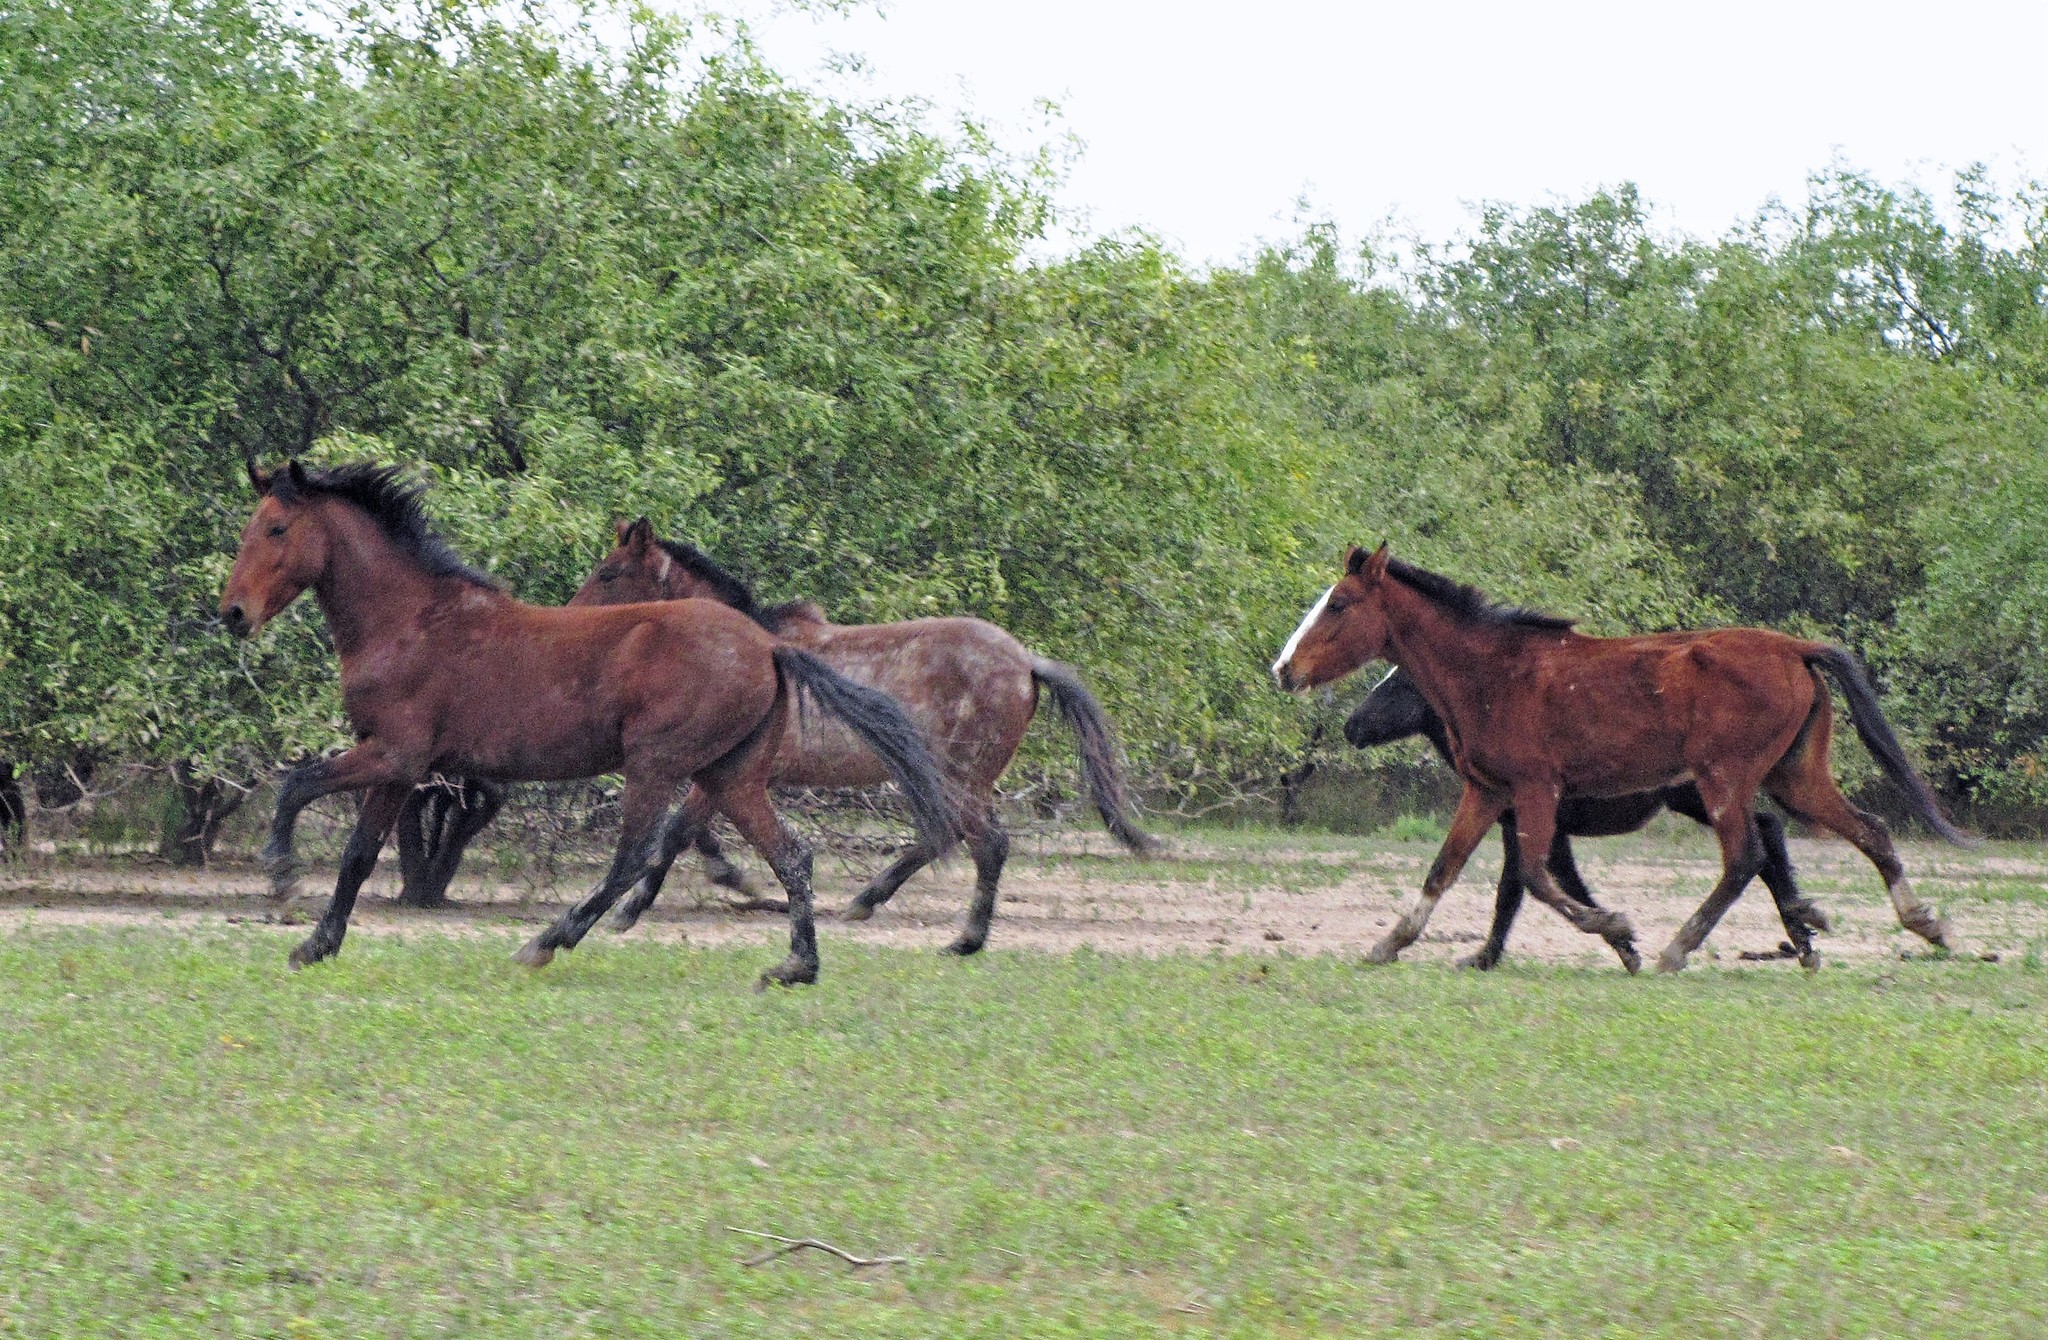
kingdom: Animalia
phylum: Chordata
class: Mammalia
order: Perissodactyla
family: Equidae
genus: Equus
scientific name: Equus caballus
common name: Horse
